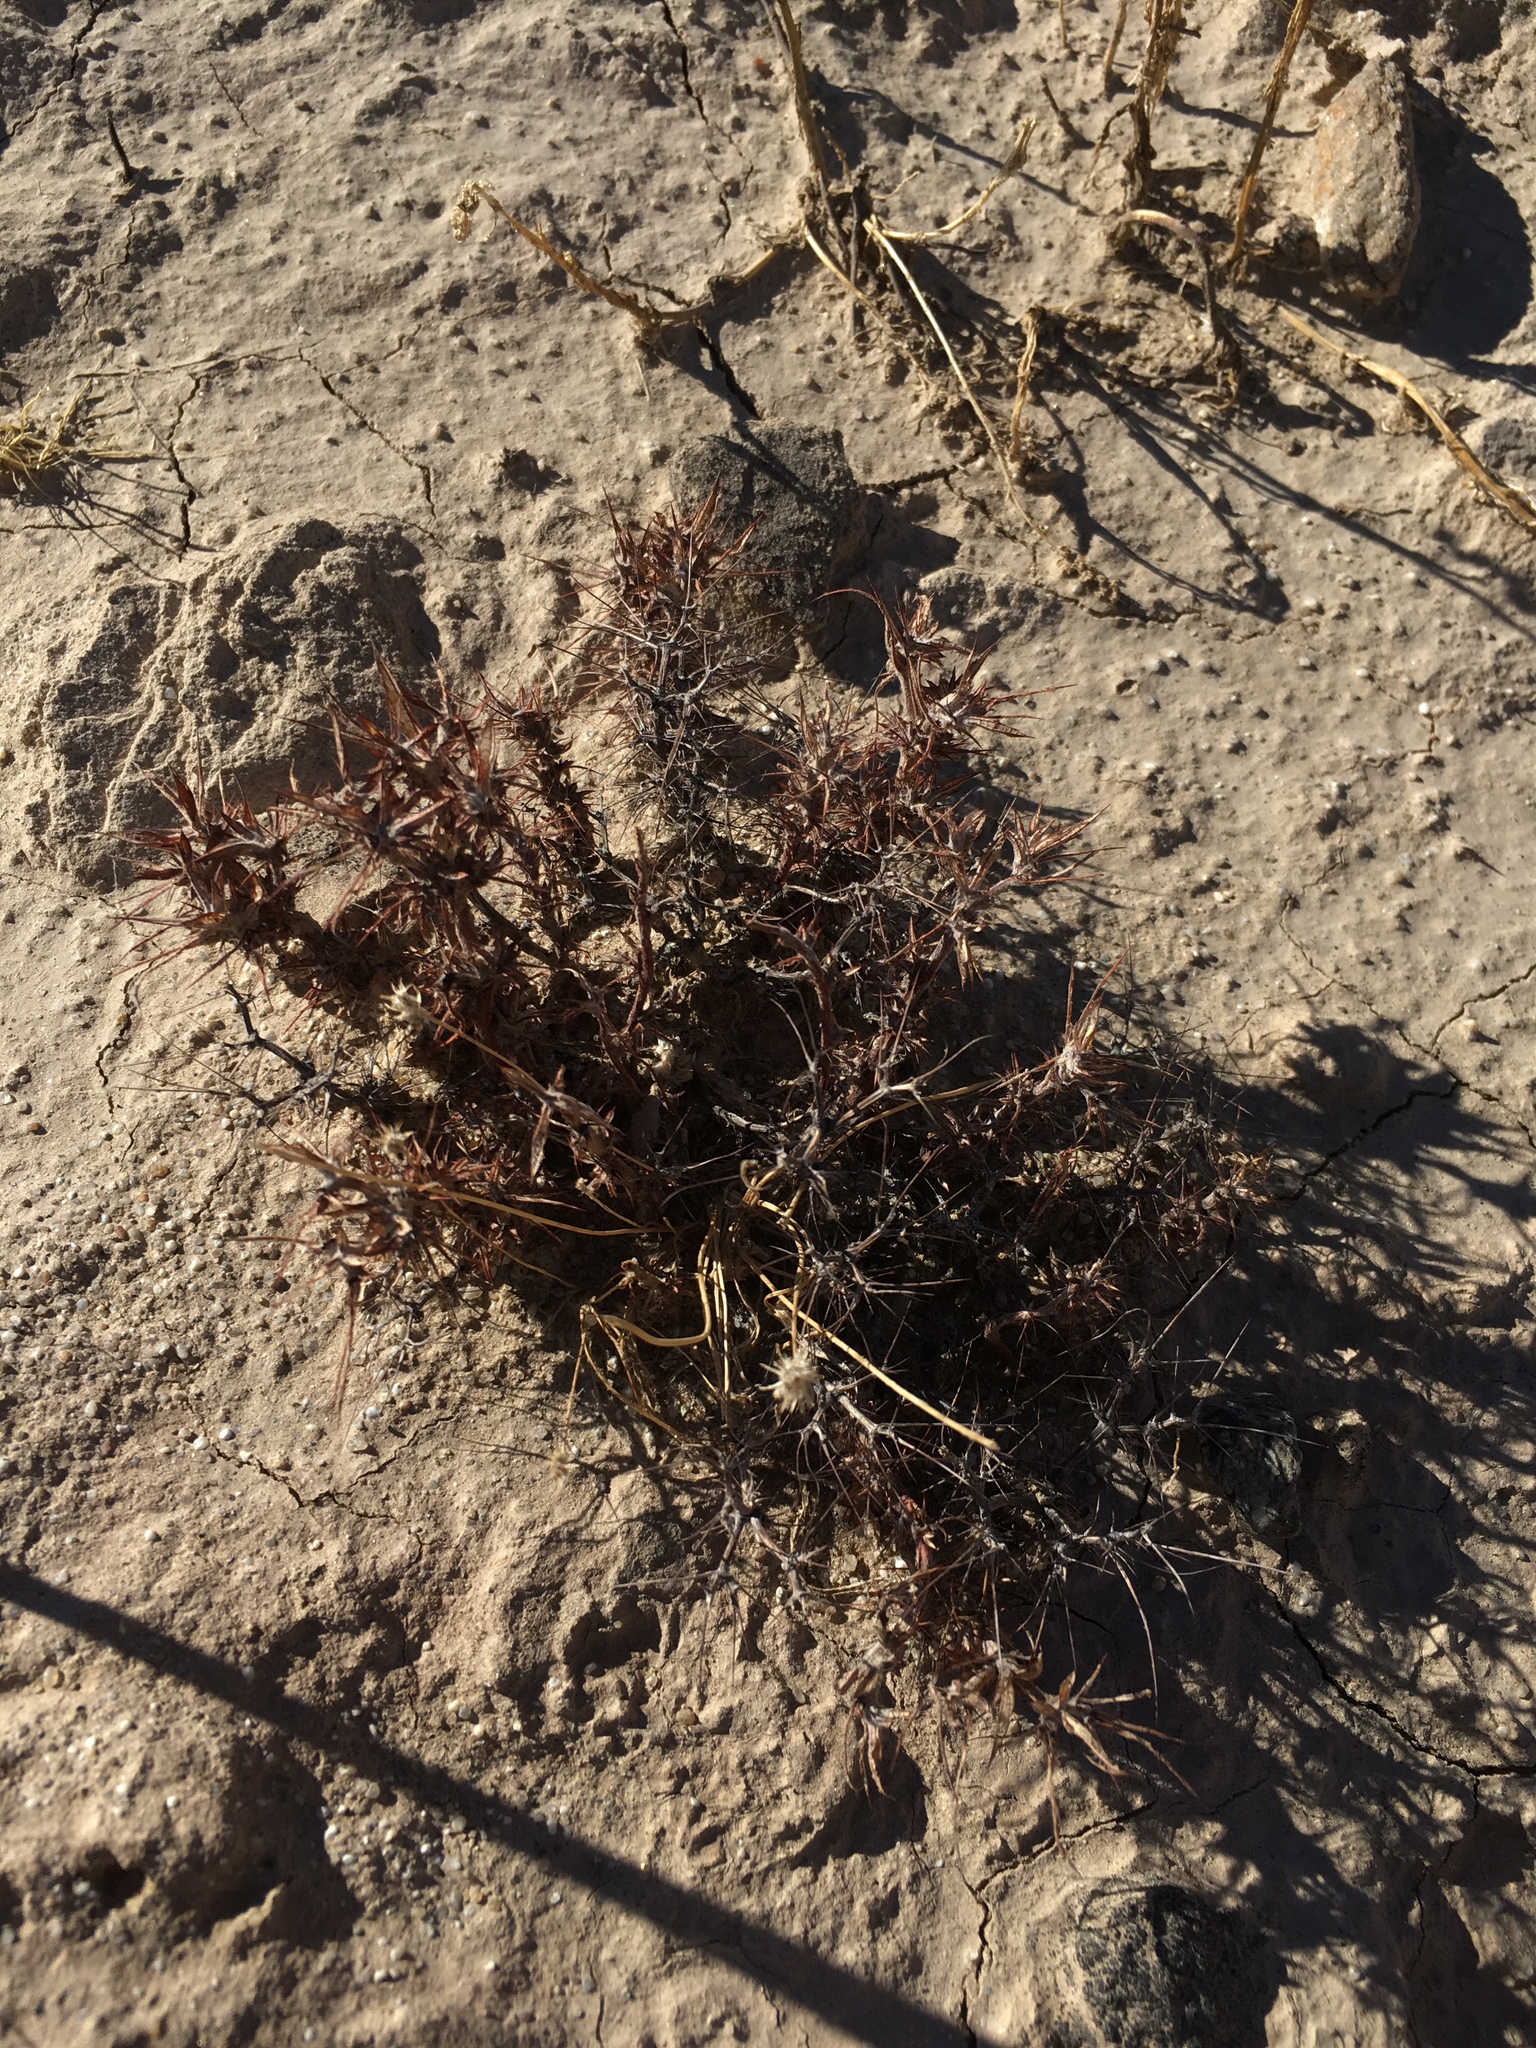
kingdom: Plantae
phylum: Tracheophyta
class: Magnoliopsida
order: Caryophyllales
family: Polygonaceae
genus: Chorizanthe
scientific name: Chorizanthe rigida
